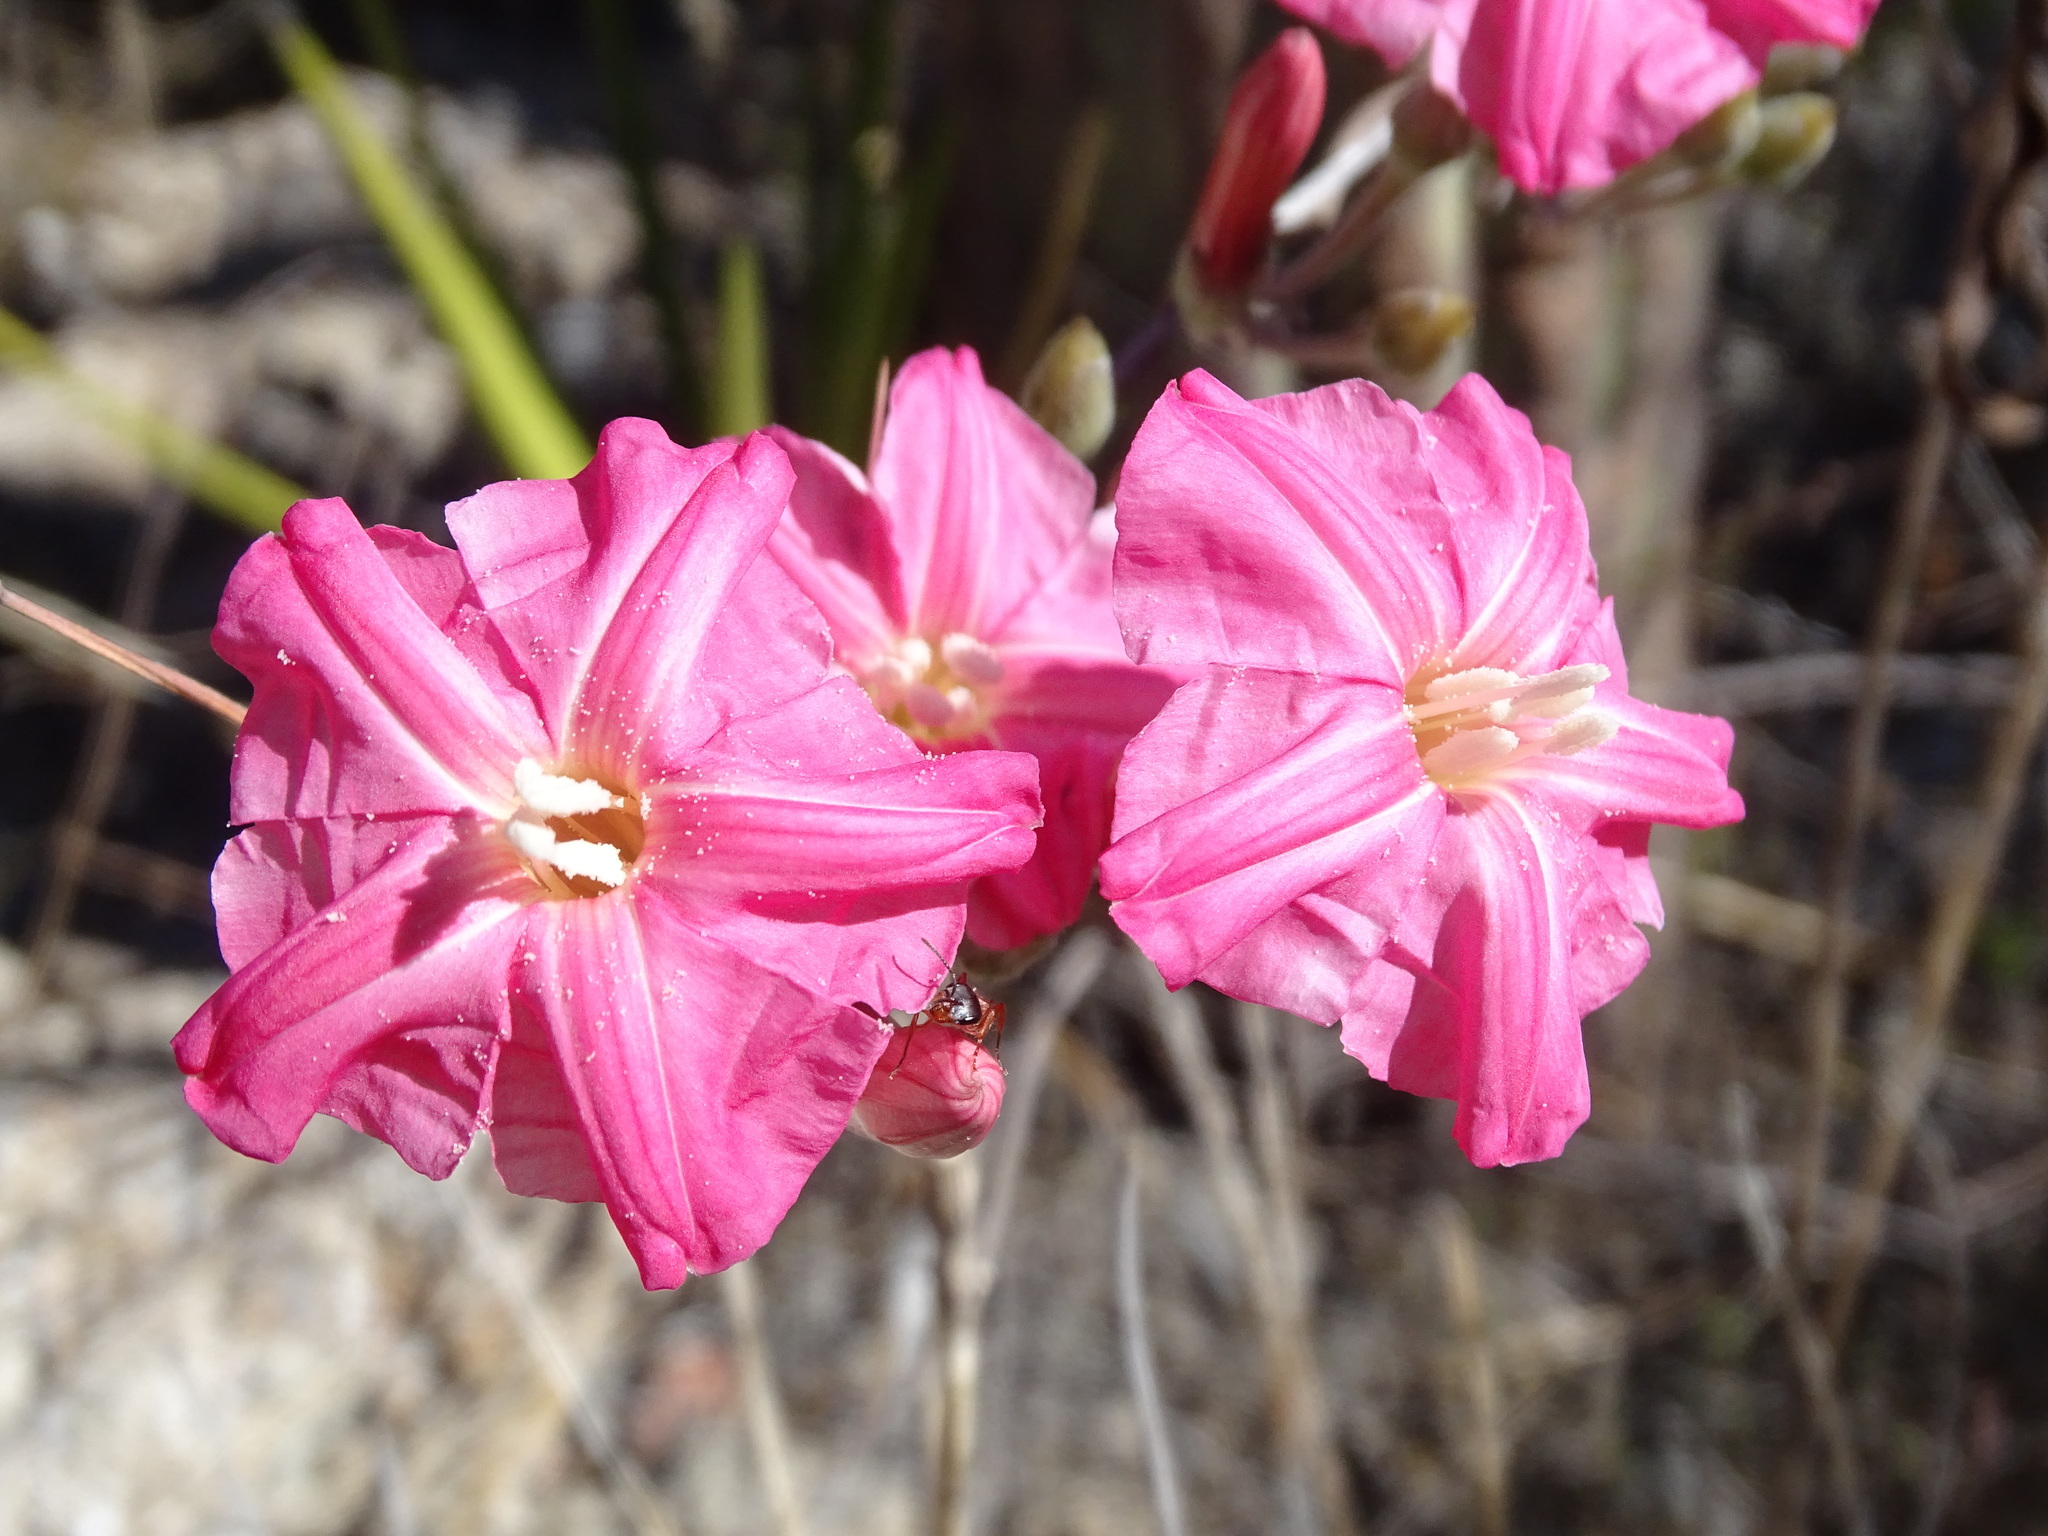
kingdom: Plantae
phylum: Tracheophyta
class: Magnoliopsida
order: Solanales
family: Convolvulaceae
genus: Ipomoea
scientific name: Ipomoea conzattii
